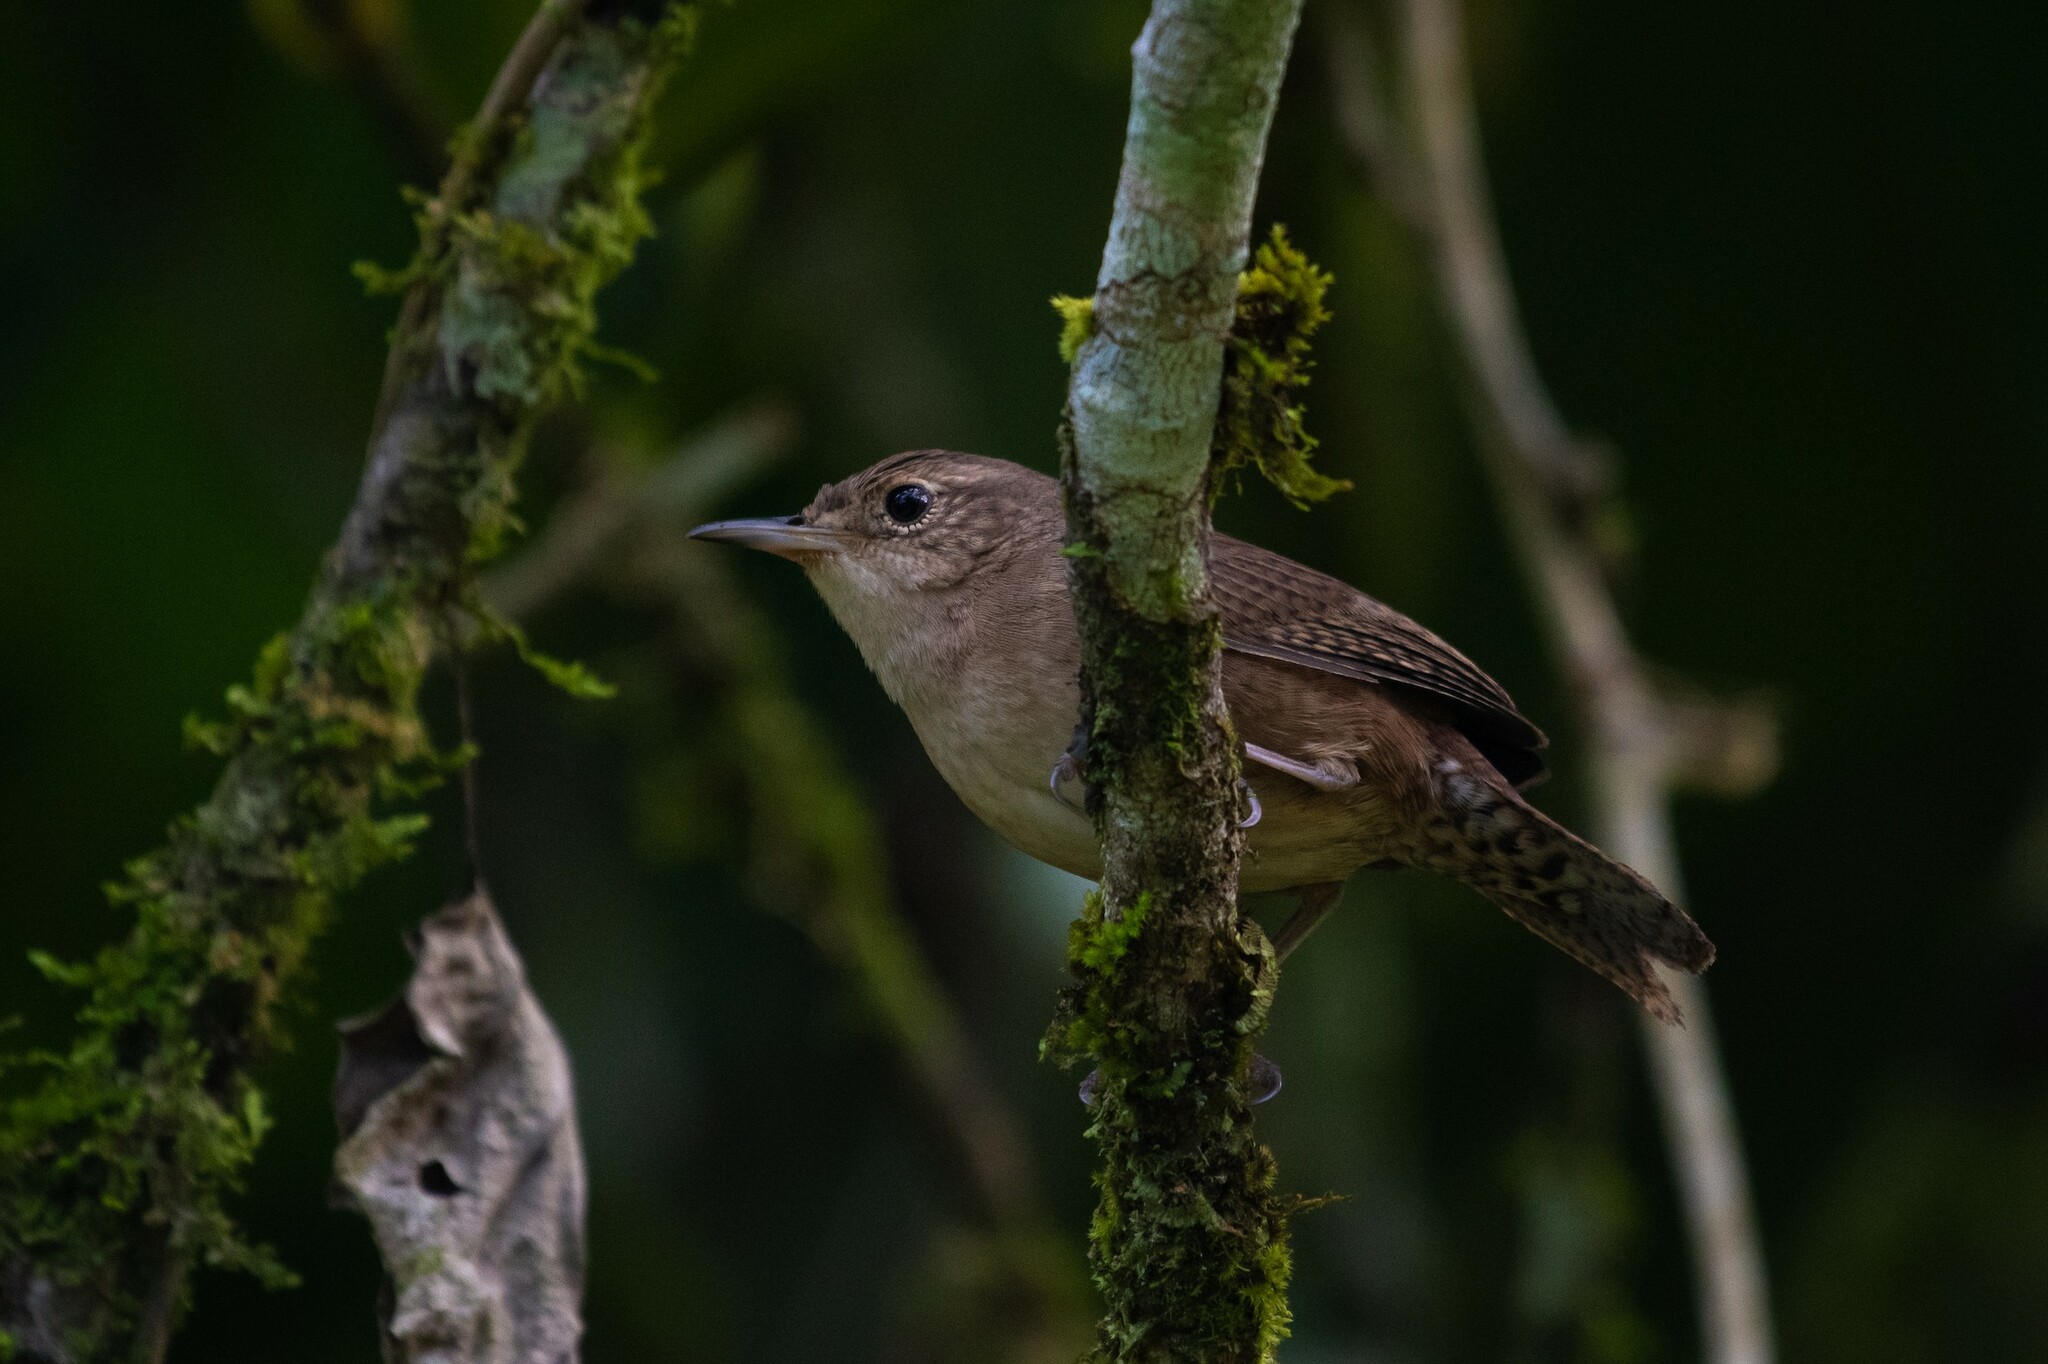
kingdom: Animalia
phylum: Chordata
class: Aves
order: Passeriformes
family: Troglodytidae
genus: Troglodytes
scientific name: Troglodytes aedon
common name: House wren
